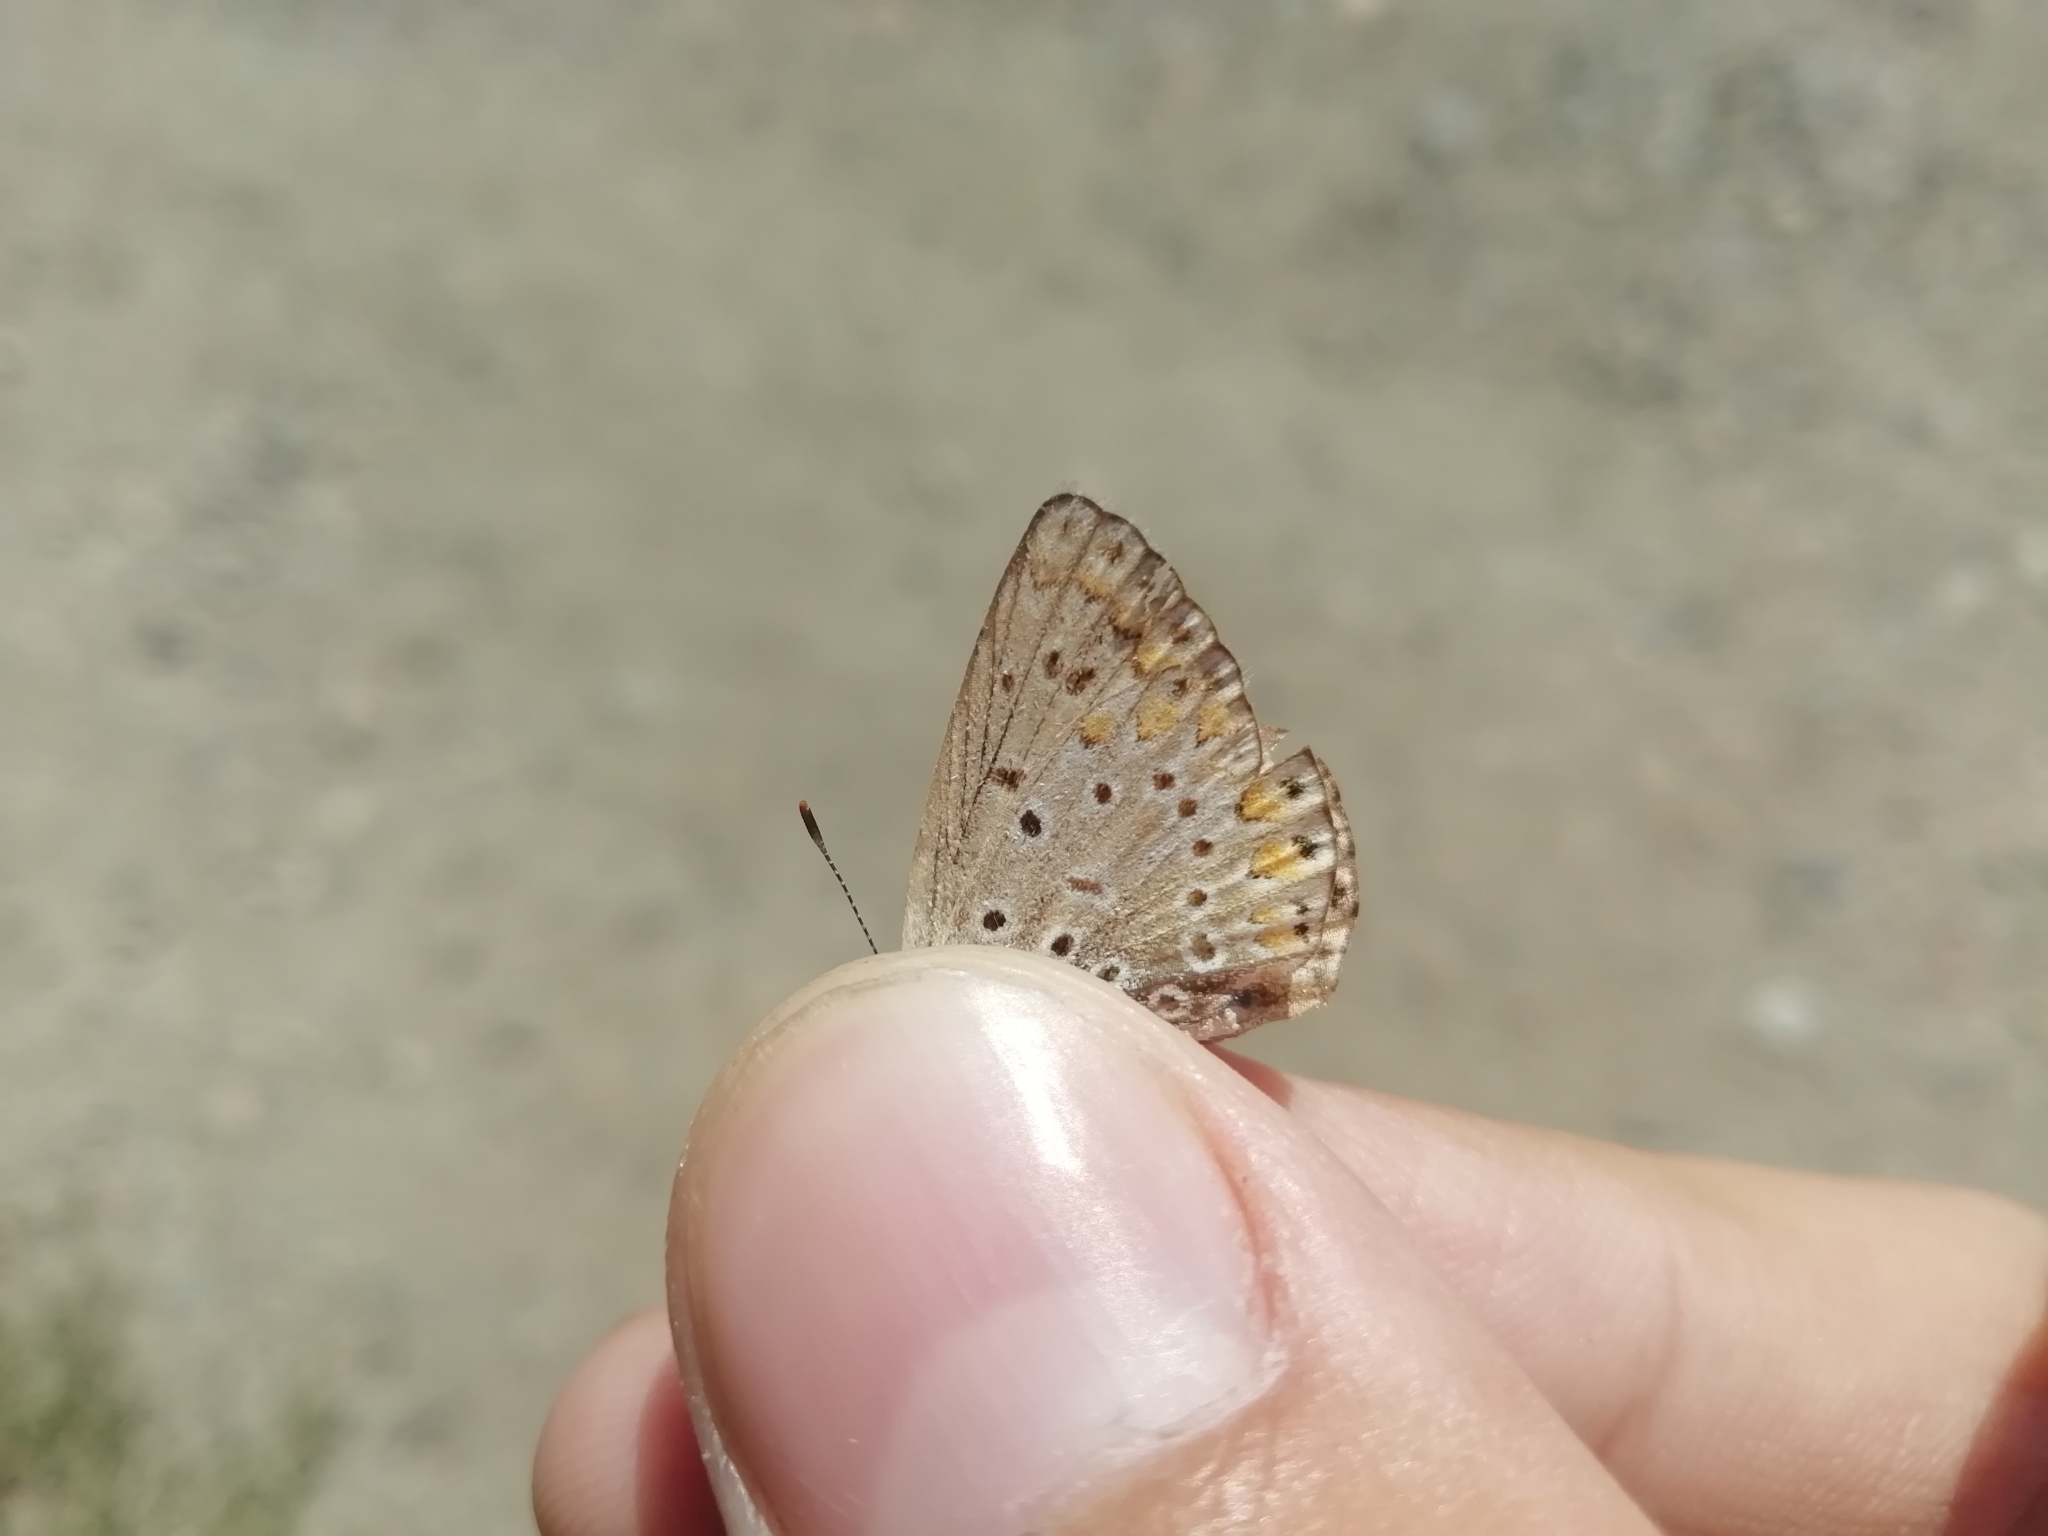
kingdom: Animalia
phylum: Arthropoda
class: Insecta
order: Lepidoptera
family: Lycaenidae
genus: Polyommatus
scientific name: Polyommatus icarus
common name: Common blue
